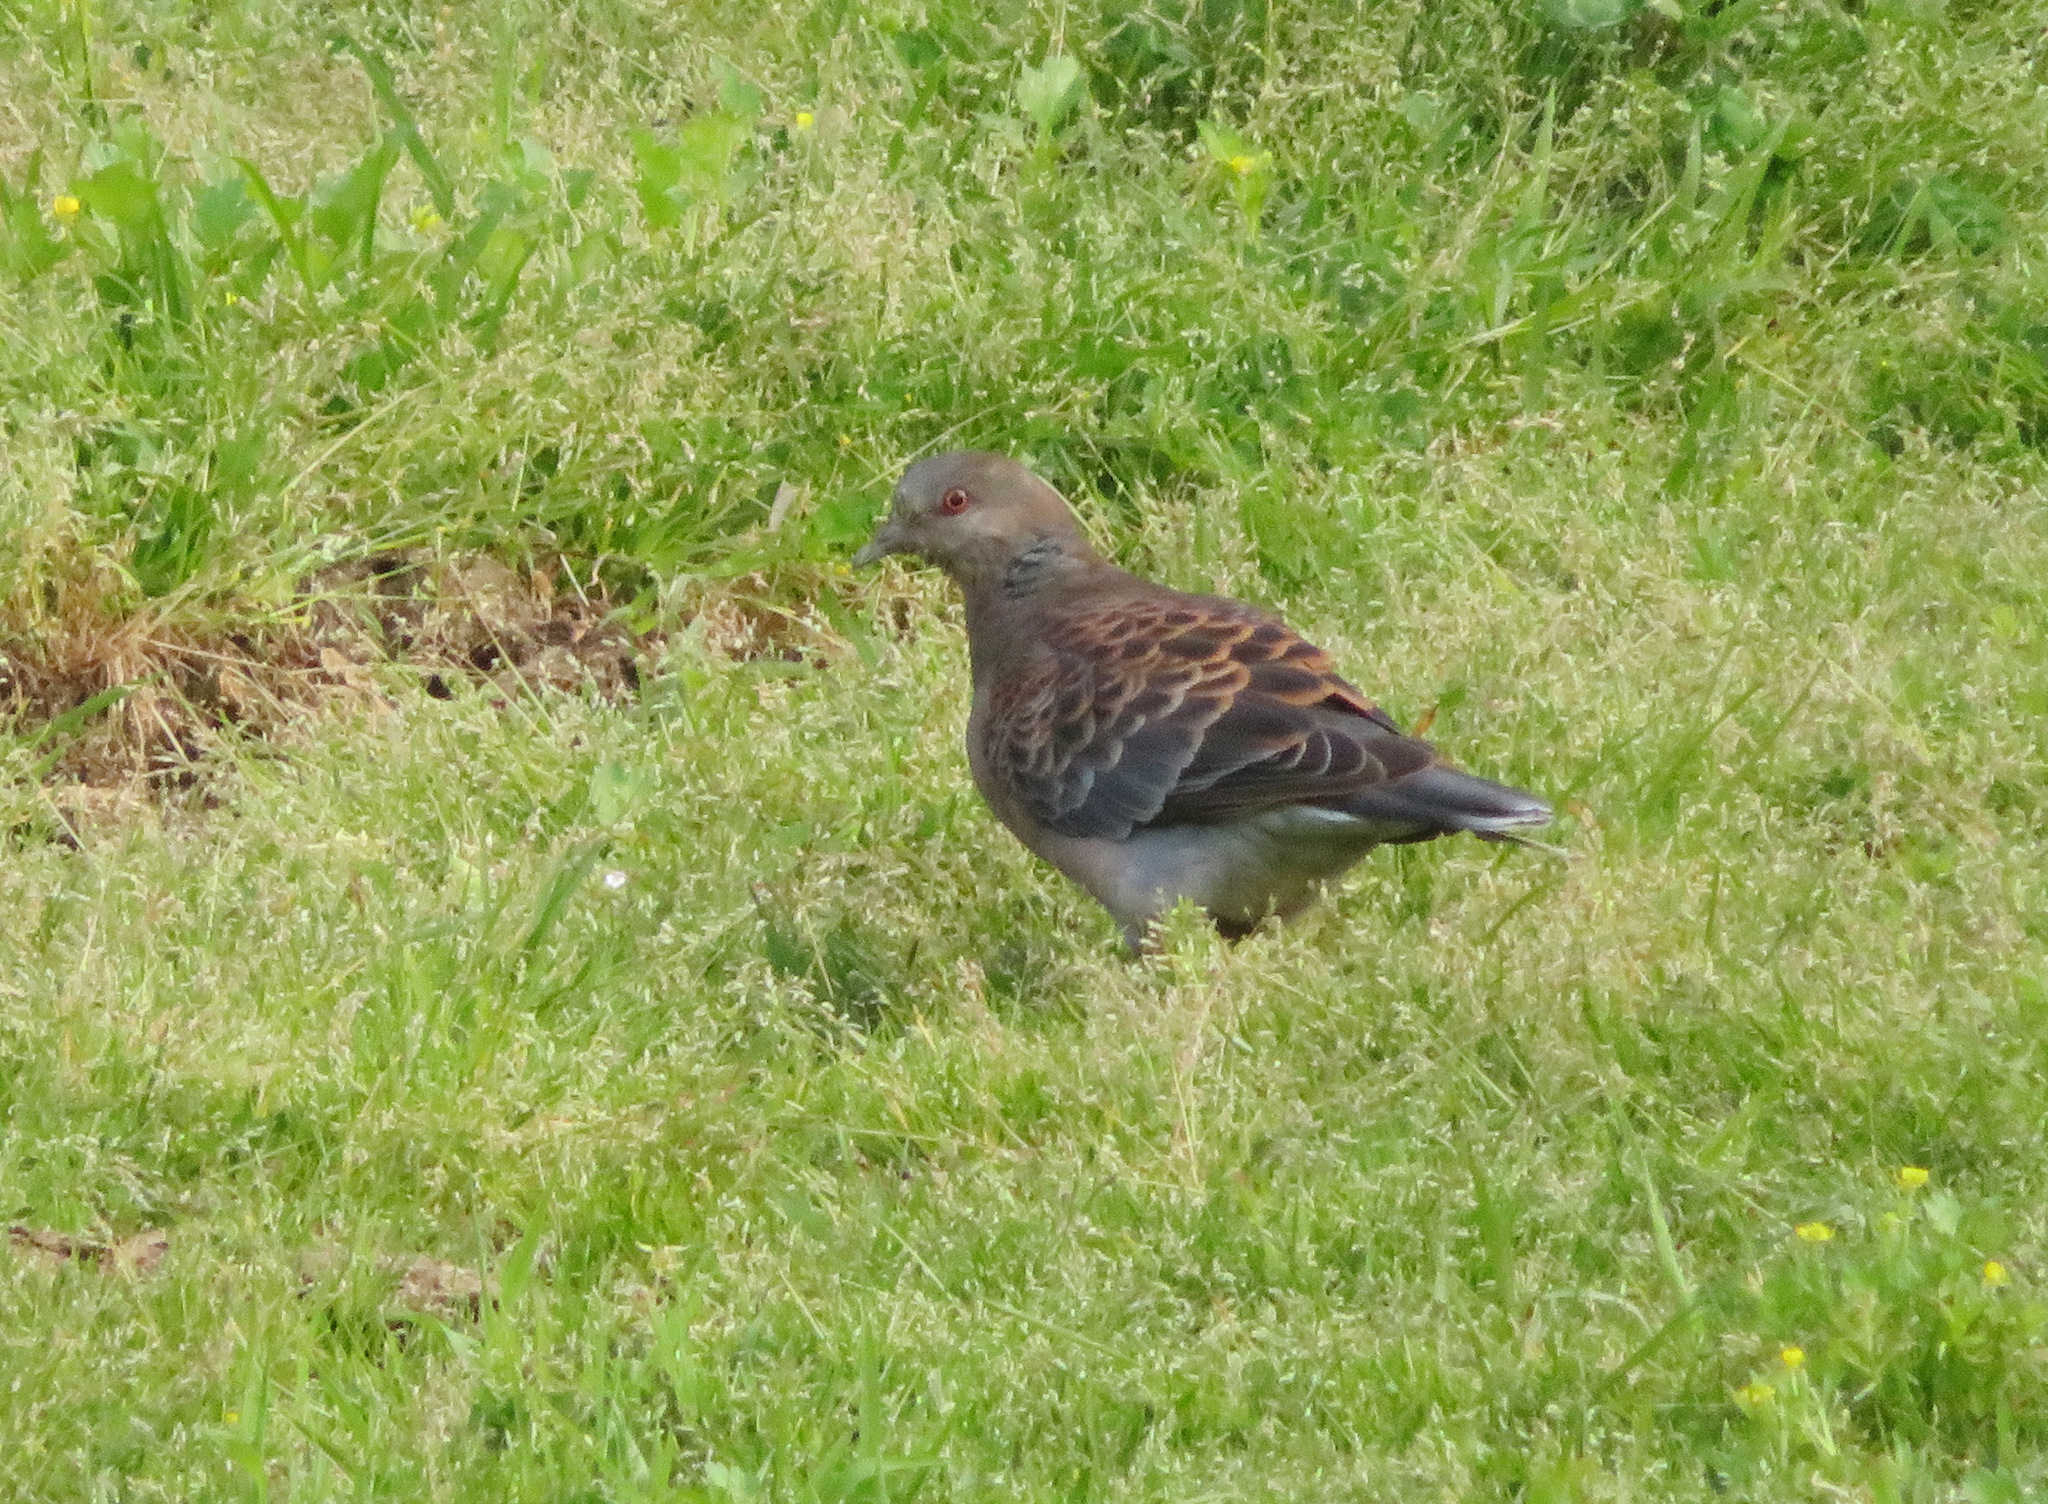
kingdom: Animalia
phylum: Chordata
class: Aves
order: Columbiformes
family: Columbidae
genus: Streptopelia
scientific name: Streptopelia orientalis
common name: Oriental turtle dove
